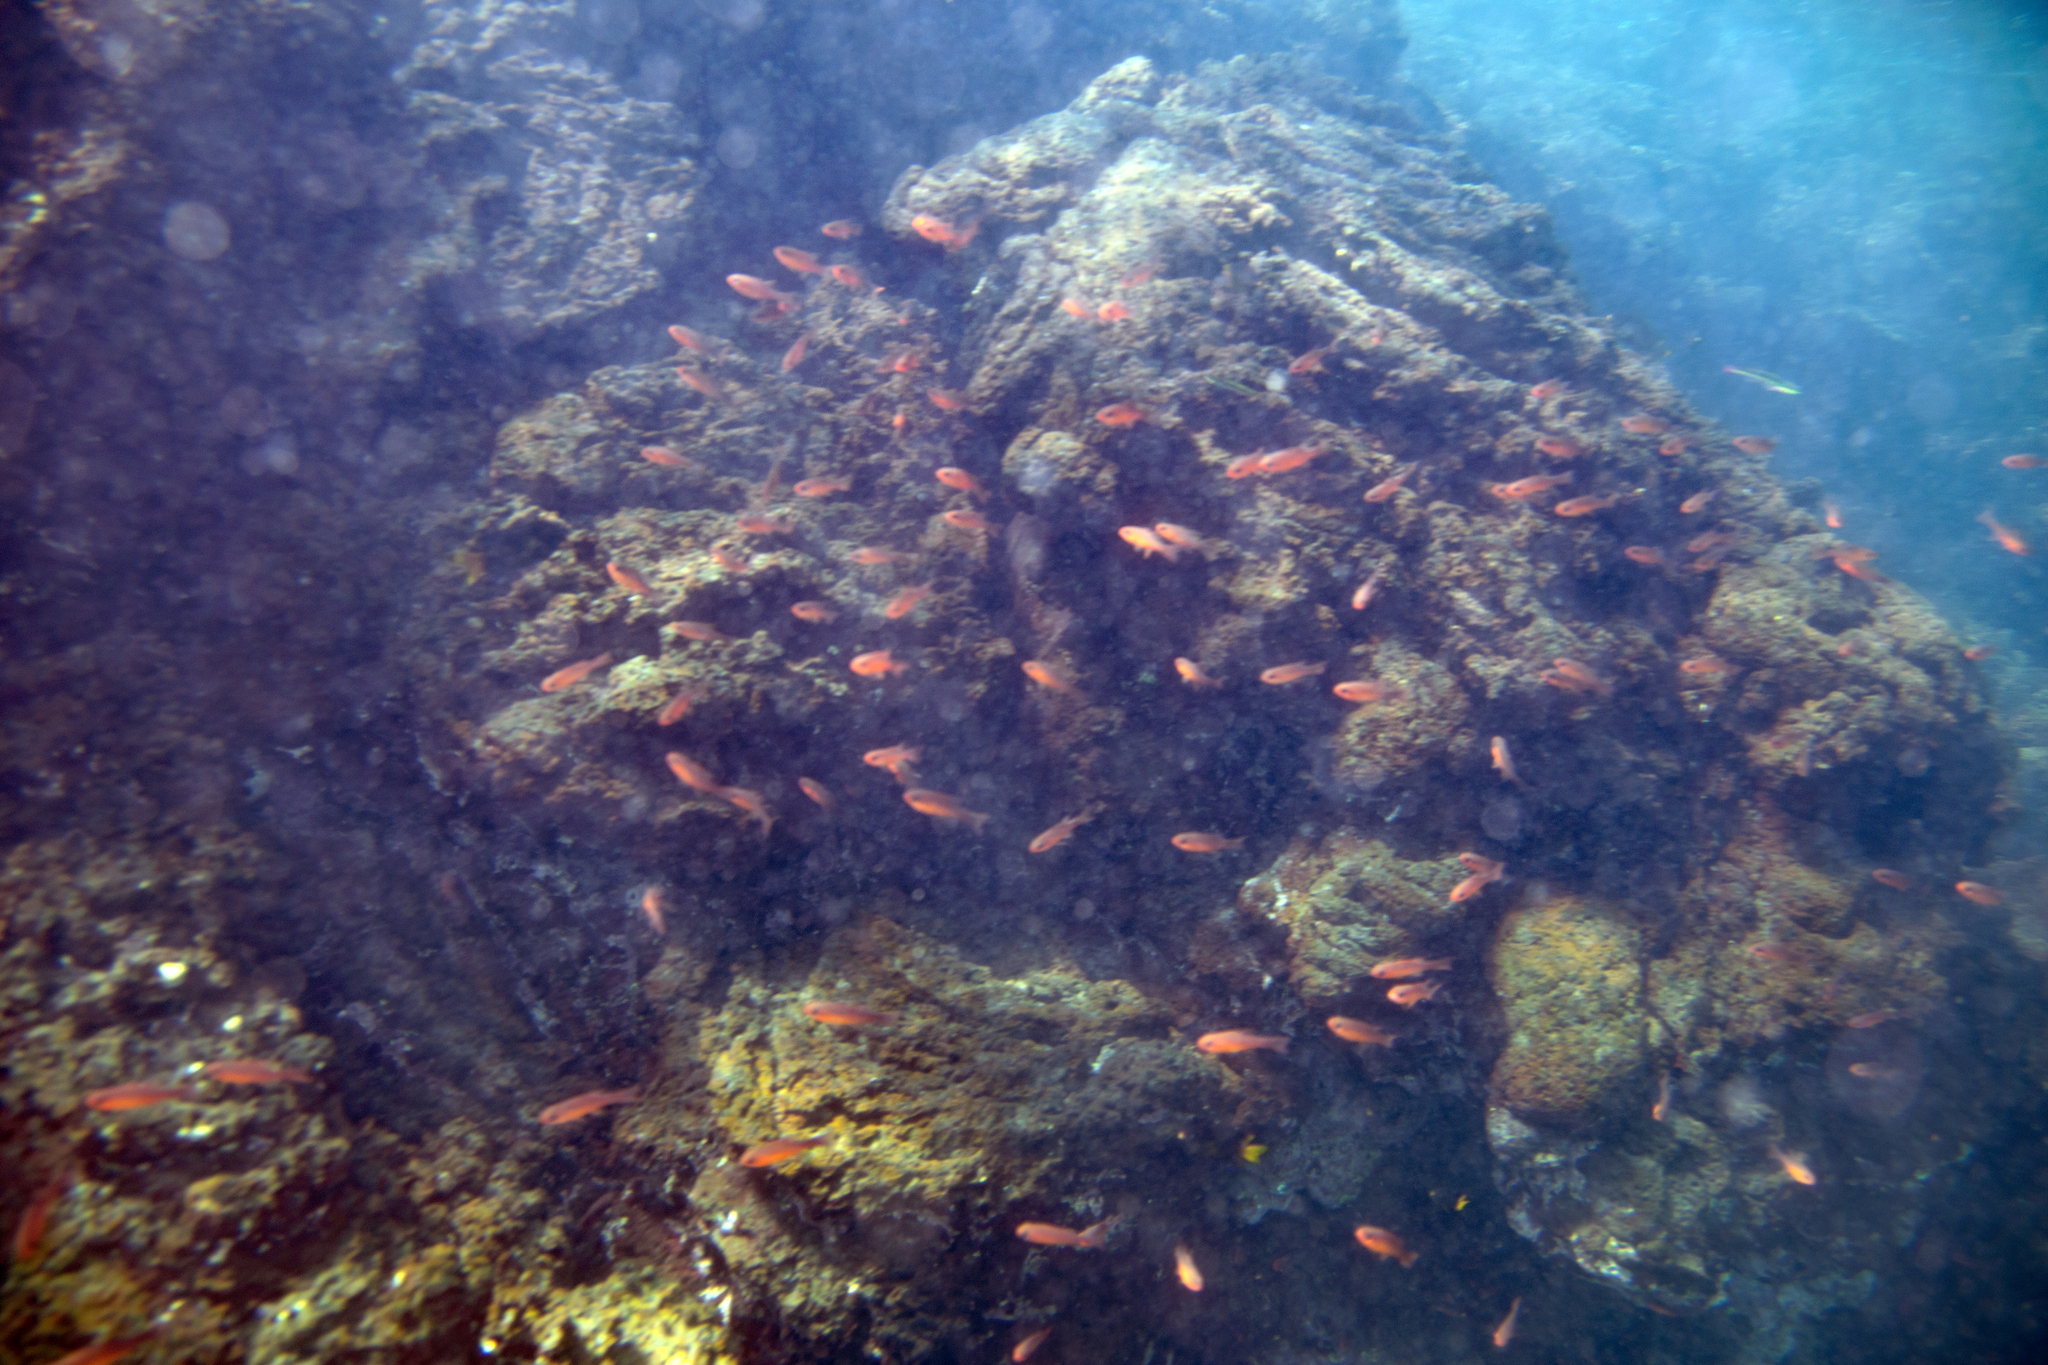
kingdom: Animalia
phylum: Chordata
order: Perciformes
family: Apogonidae
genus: Apogon
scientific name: Apogon atradorsatus
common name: Blacktip cardinalfish
